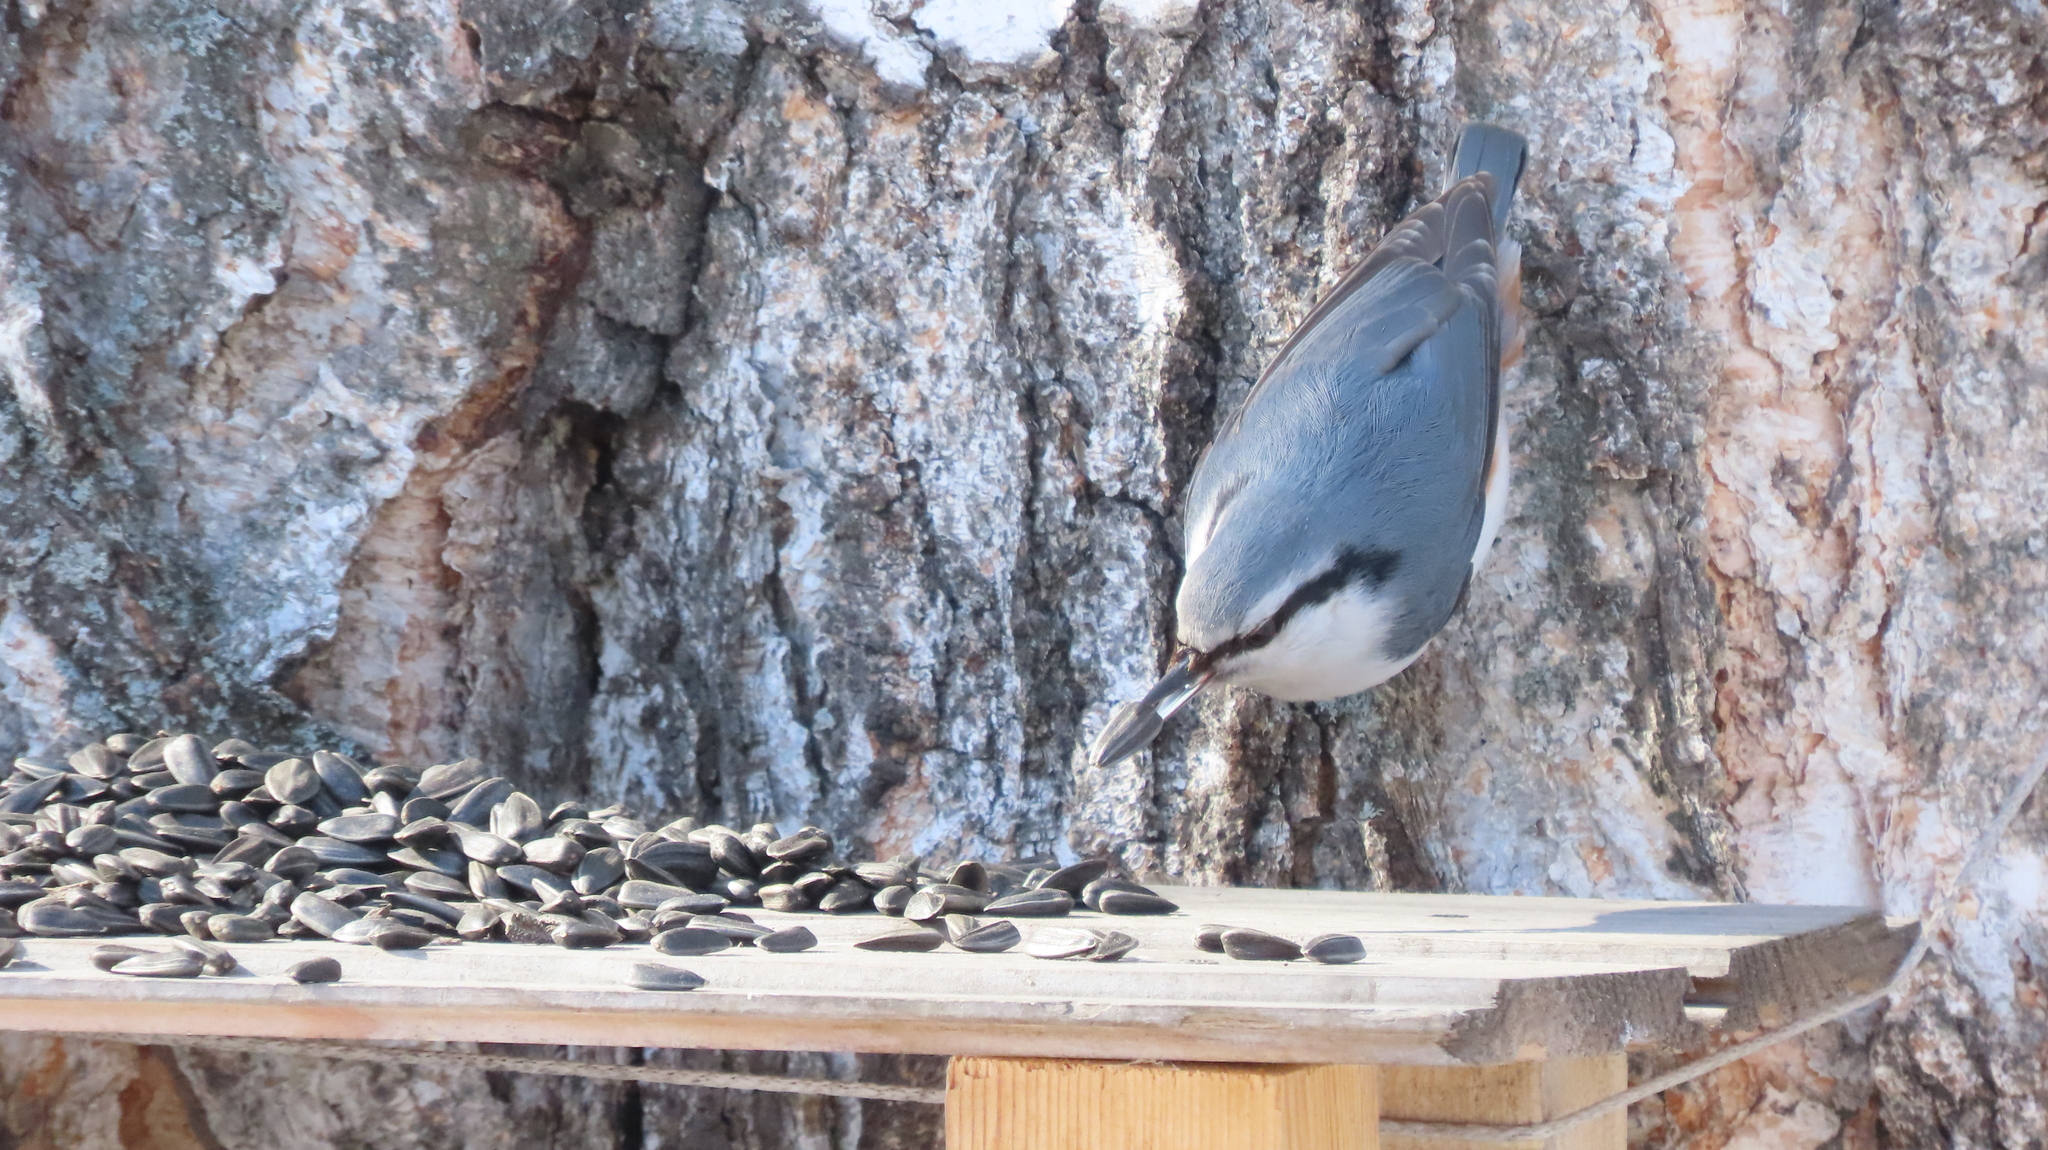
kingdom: Animalia
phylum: Chordata
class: Aves
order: Passeriformes
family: Sittidae
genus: Sitta
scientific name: Sitta europaea
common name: Eurasian nuthatch
